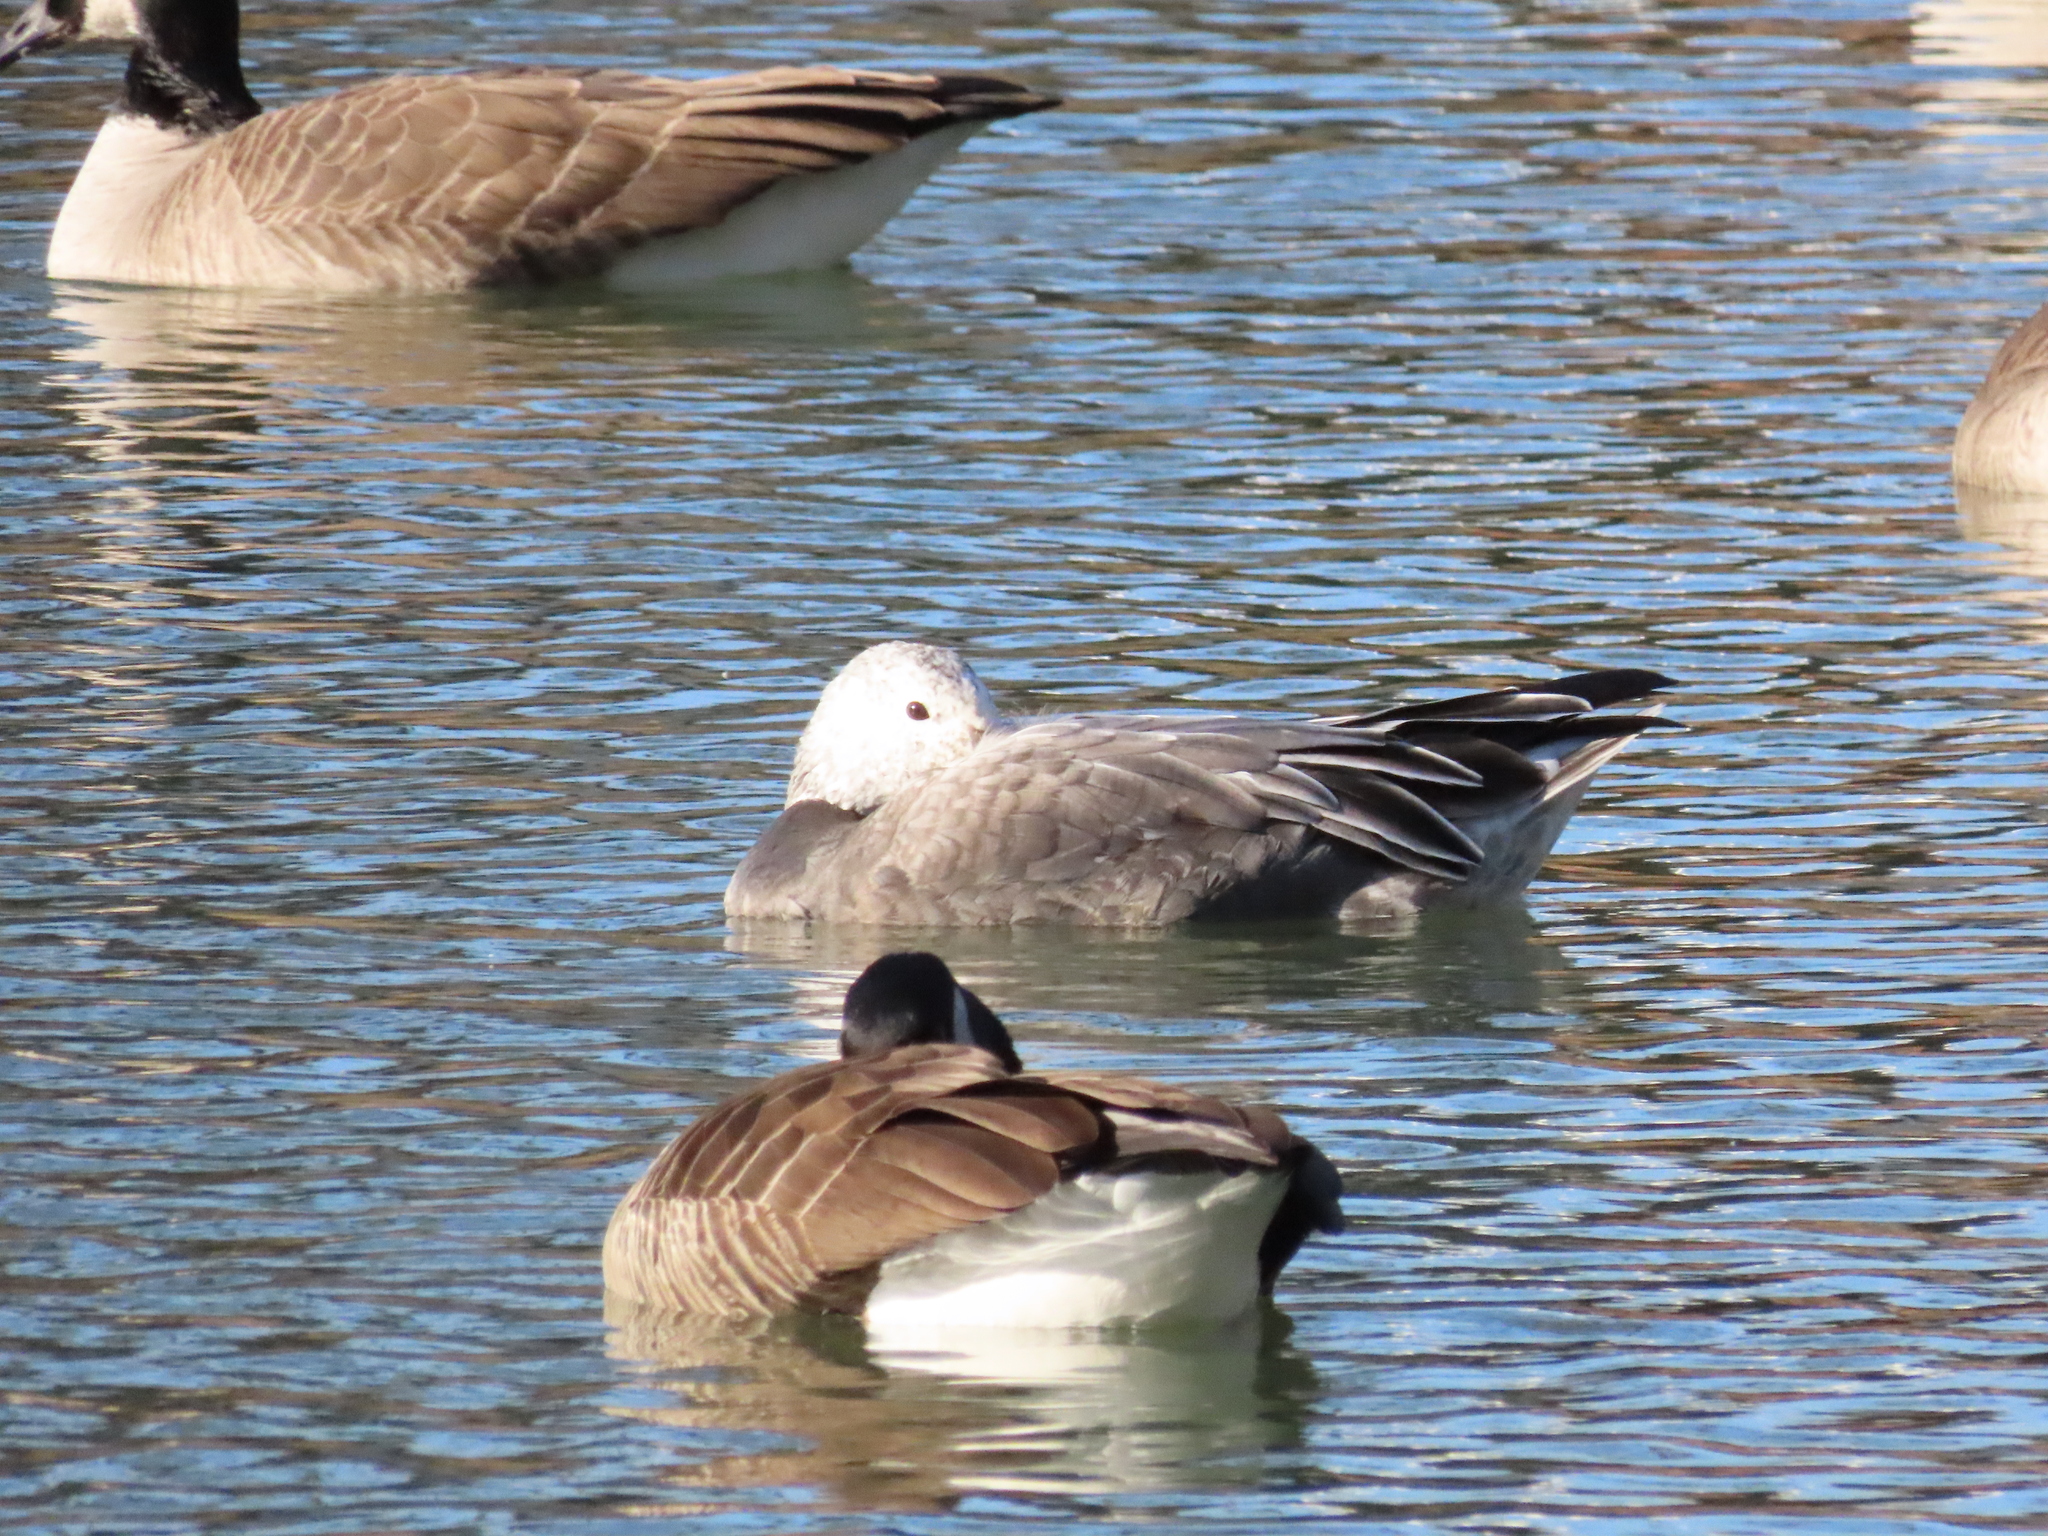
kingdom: Animalia
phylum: Chordata
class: Aves
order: Anseriformes
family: Anatidae
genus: Anser
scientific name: Anser caerulescens
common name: Snow goose
